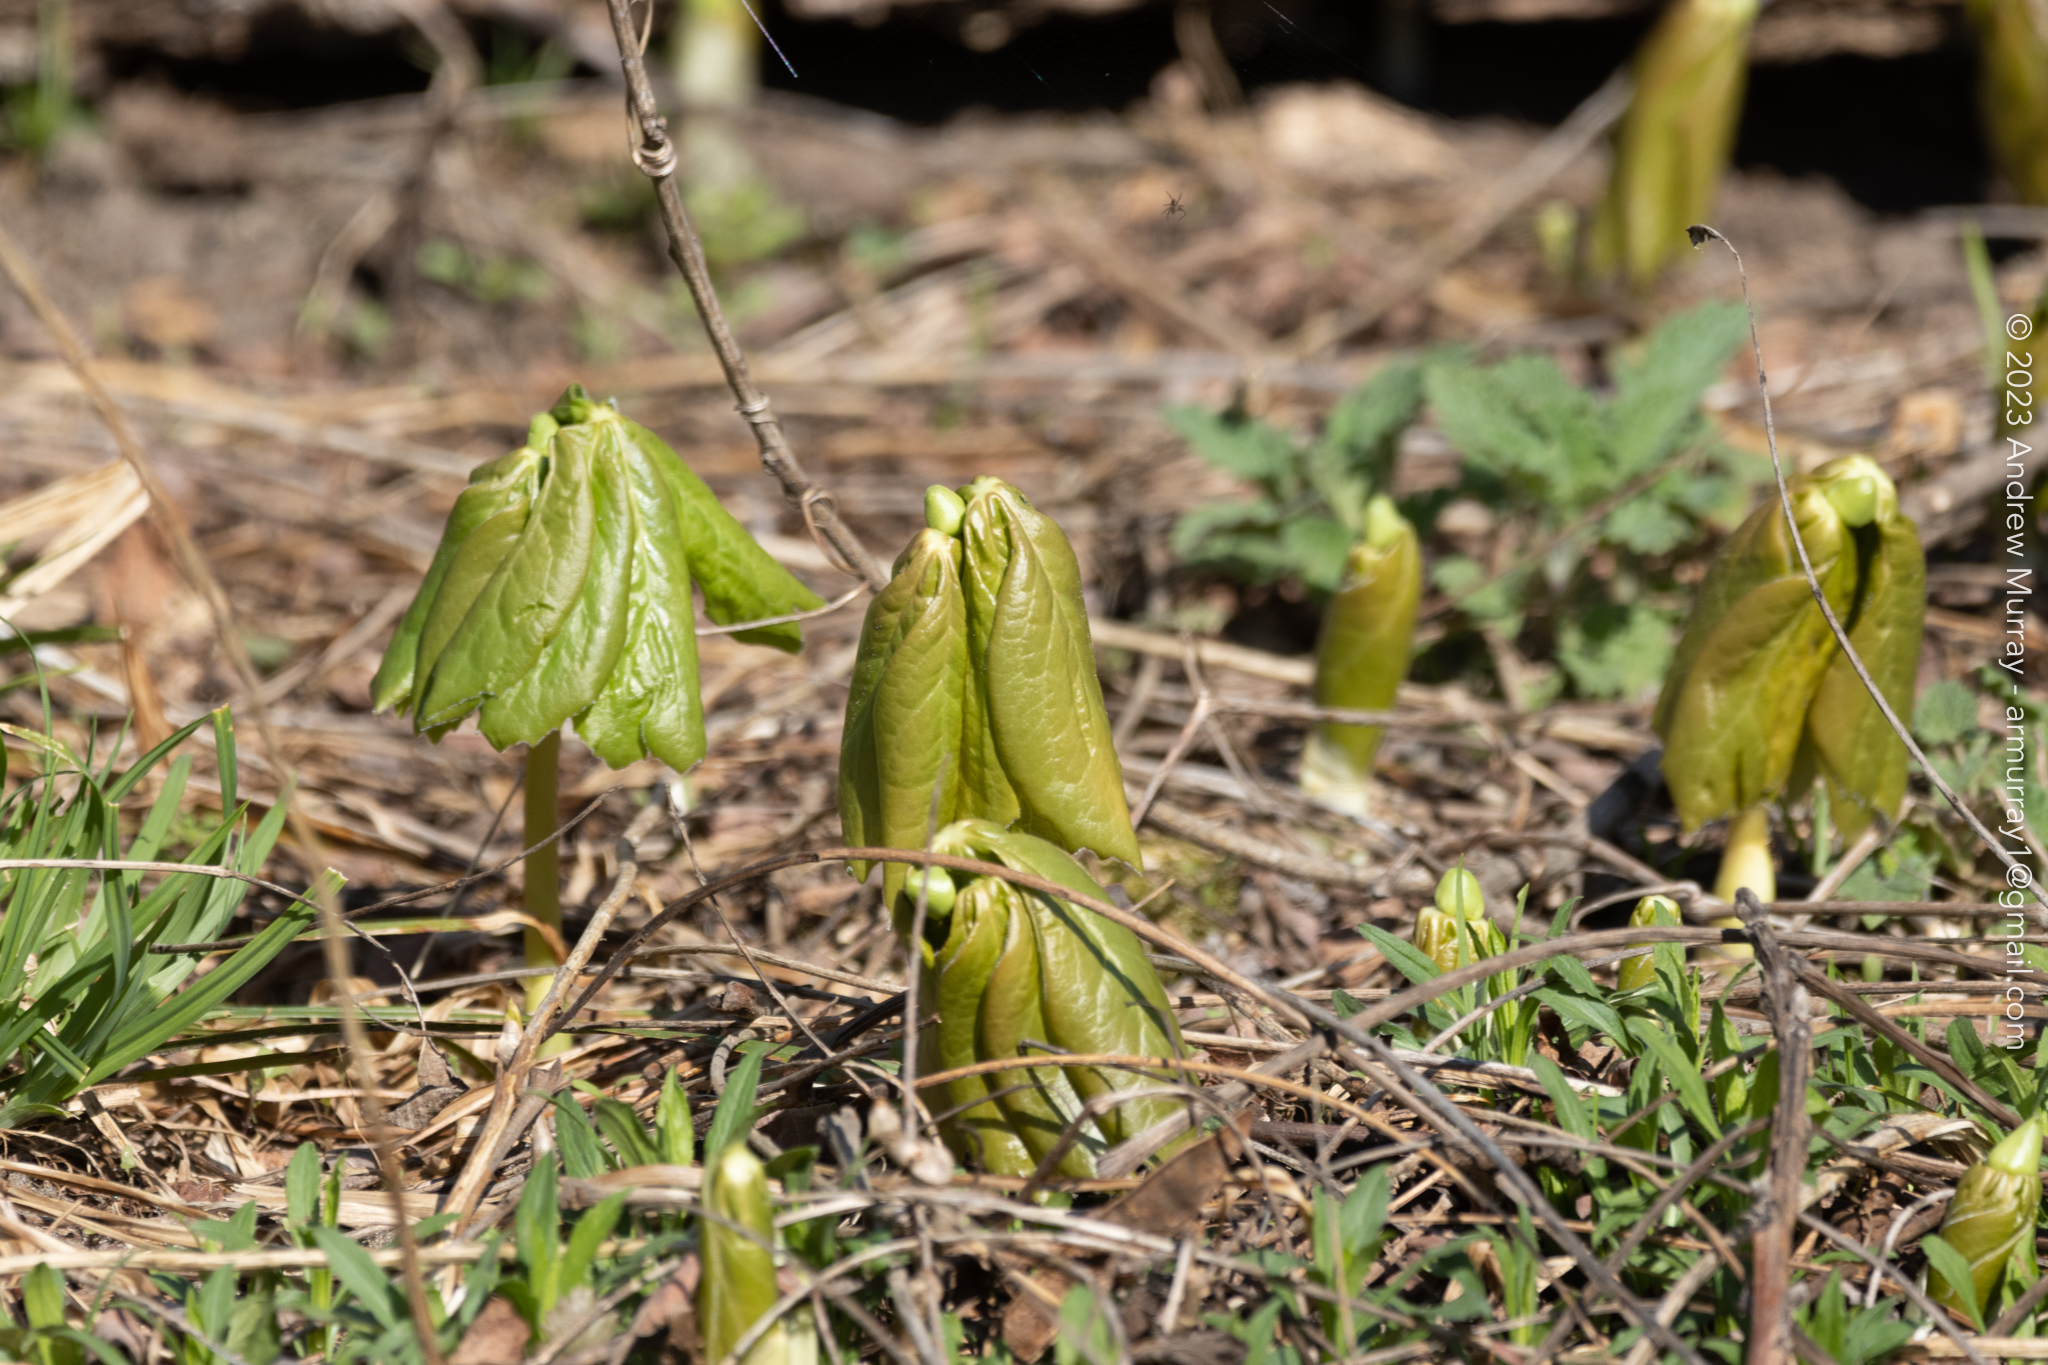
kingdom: Plantae
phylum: Tracheophyta
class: Magnoliopsida
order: Ranunculales
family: Berberidaceae
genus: Podophyllum
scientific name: Podophyllum peltatum
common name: Wild mandrake
